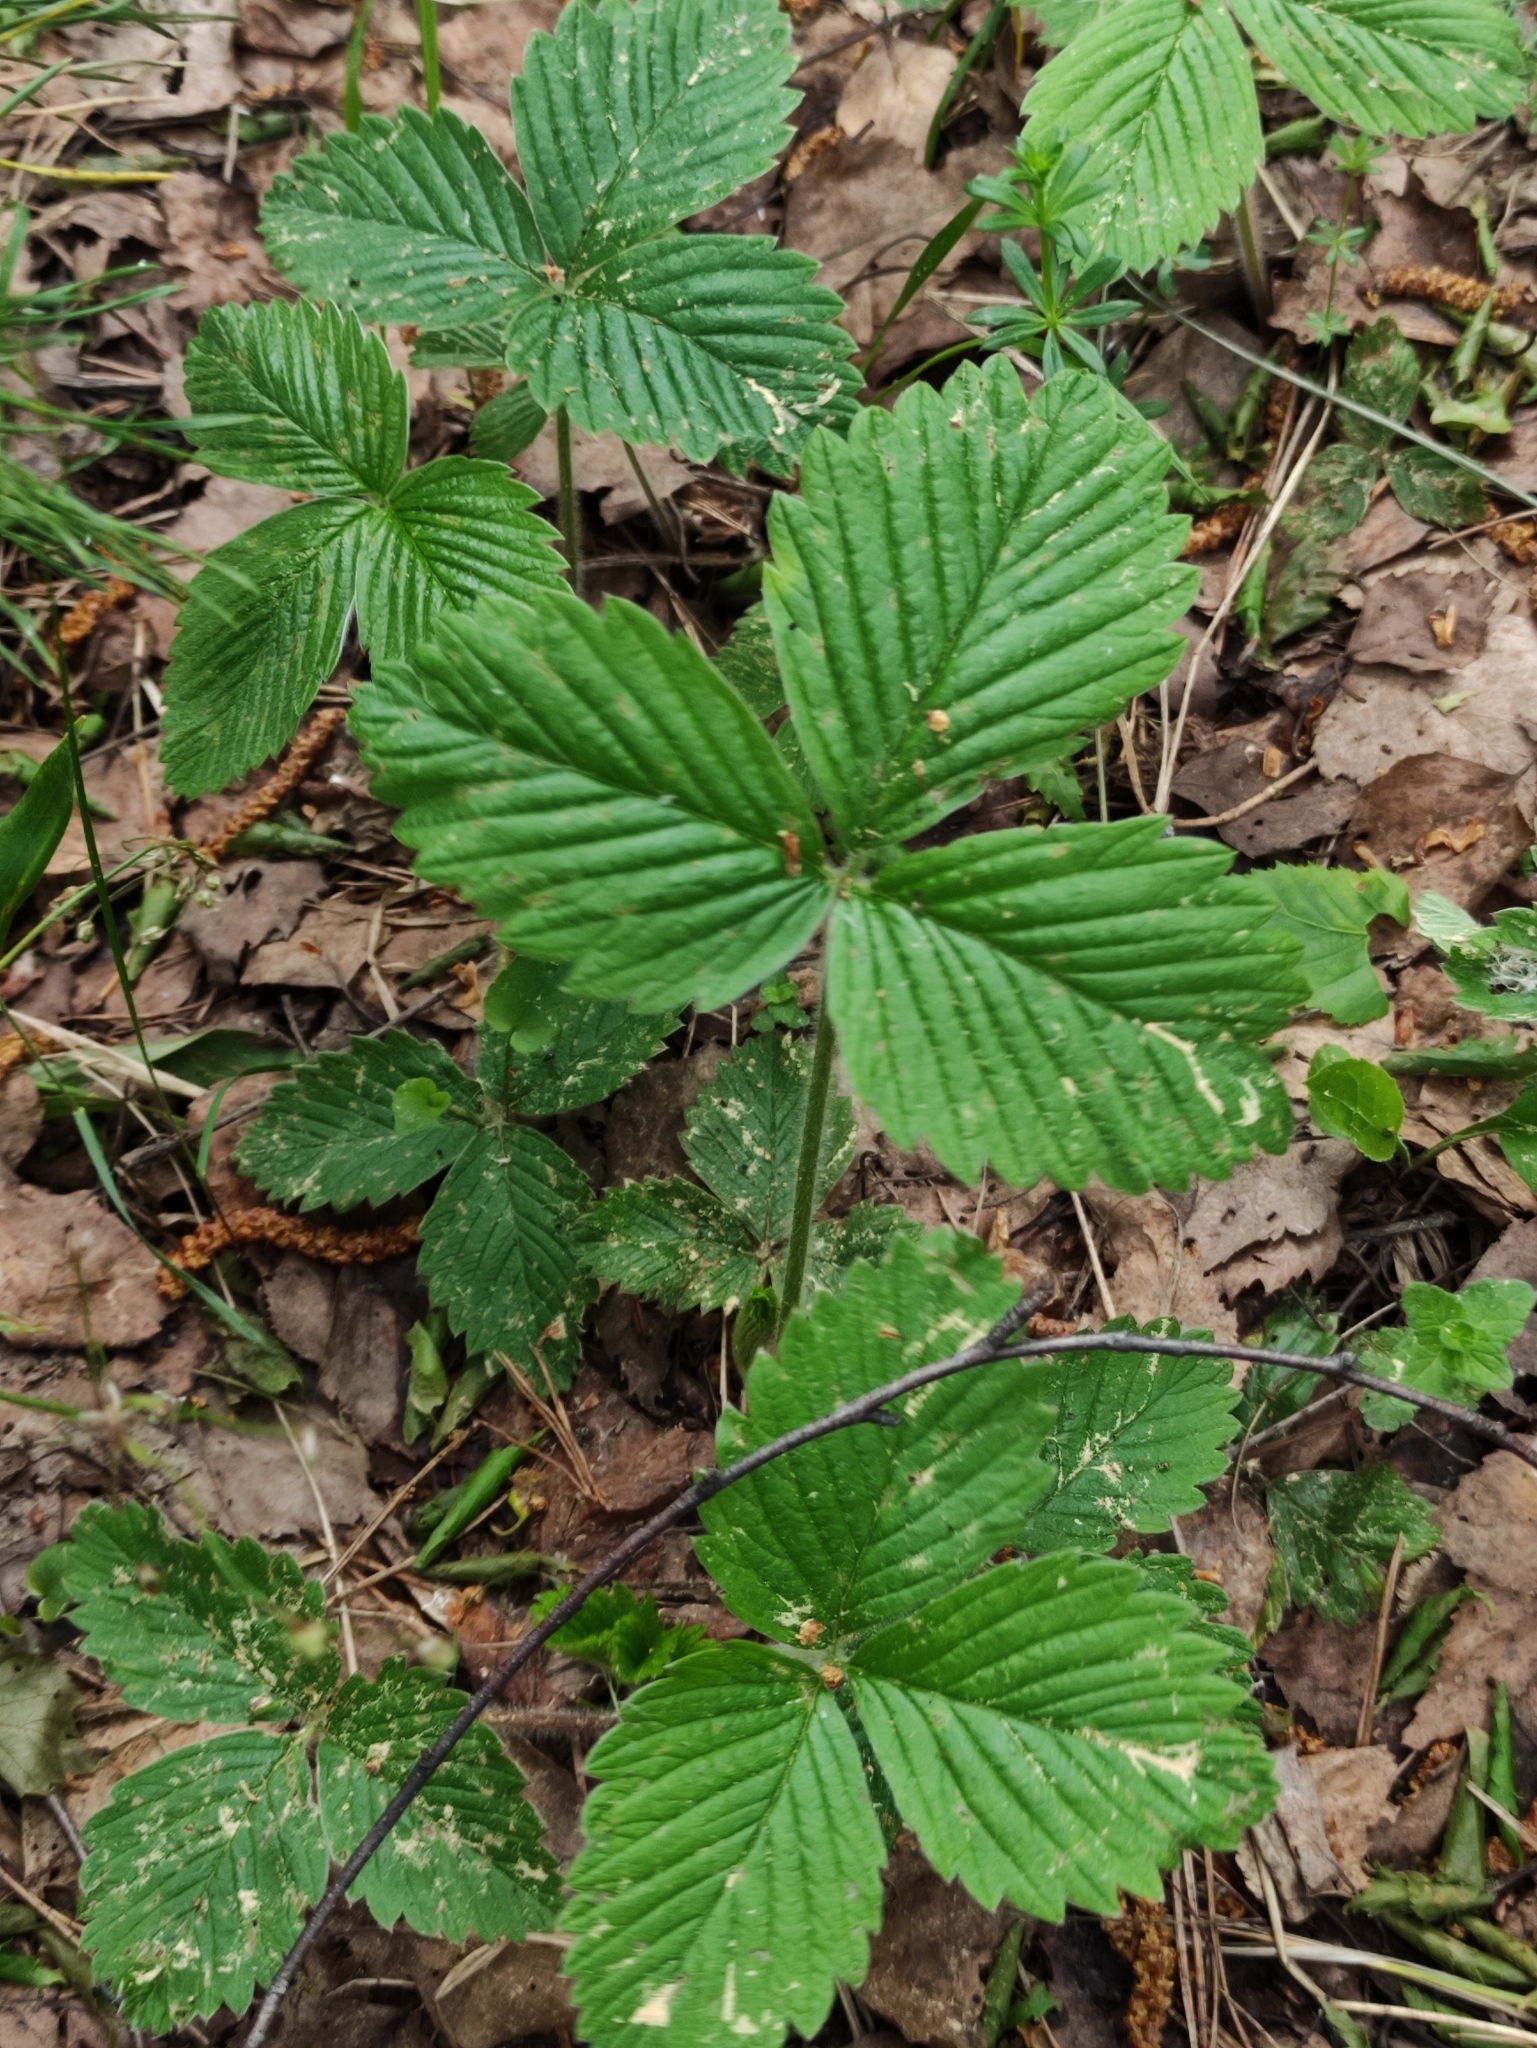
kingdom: Plantae
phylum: Tracheophyta
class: Magnoliopsida
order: Rosales
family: Rosaceae
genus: Fragaria
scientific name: Fragaria moschata
